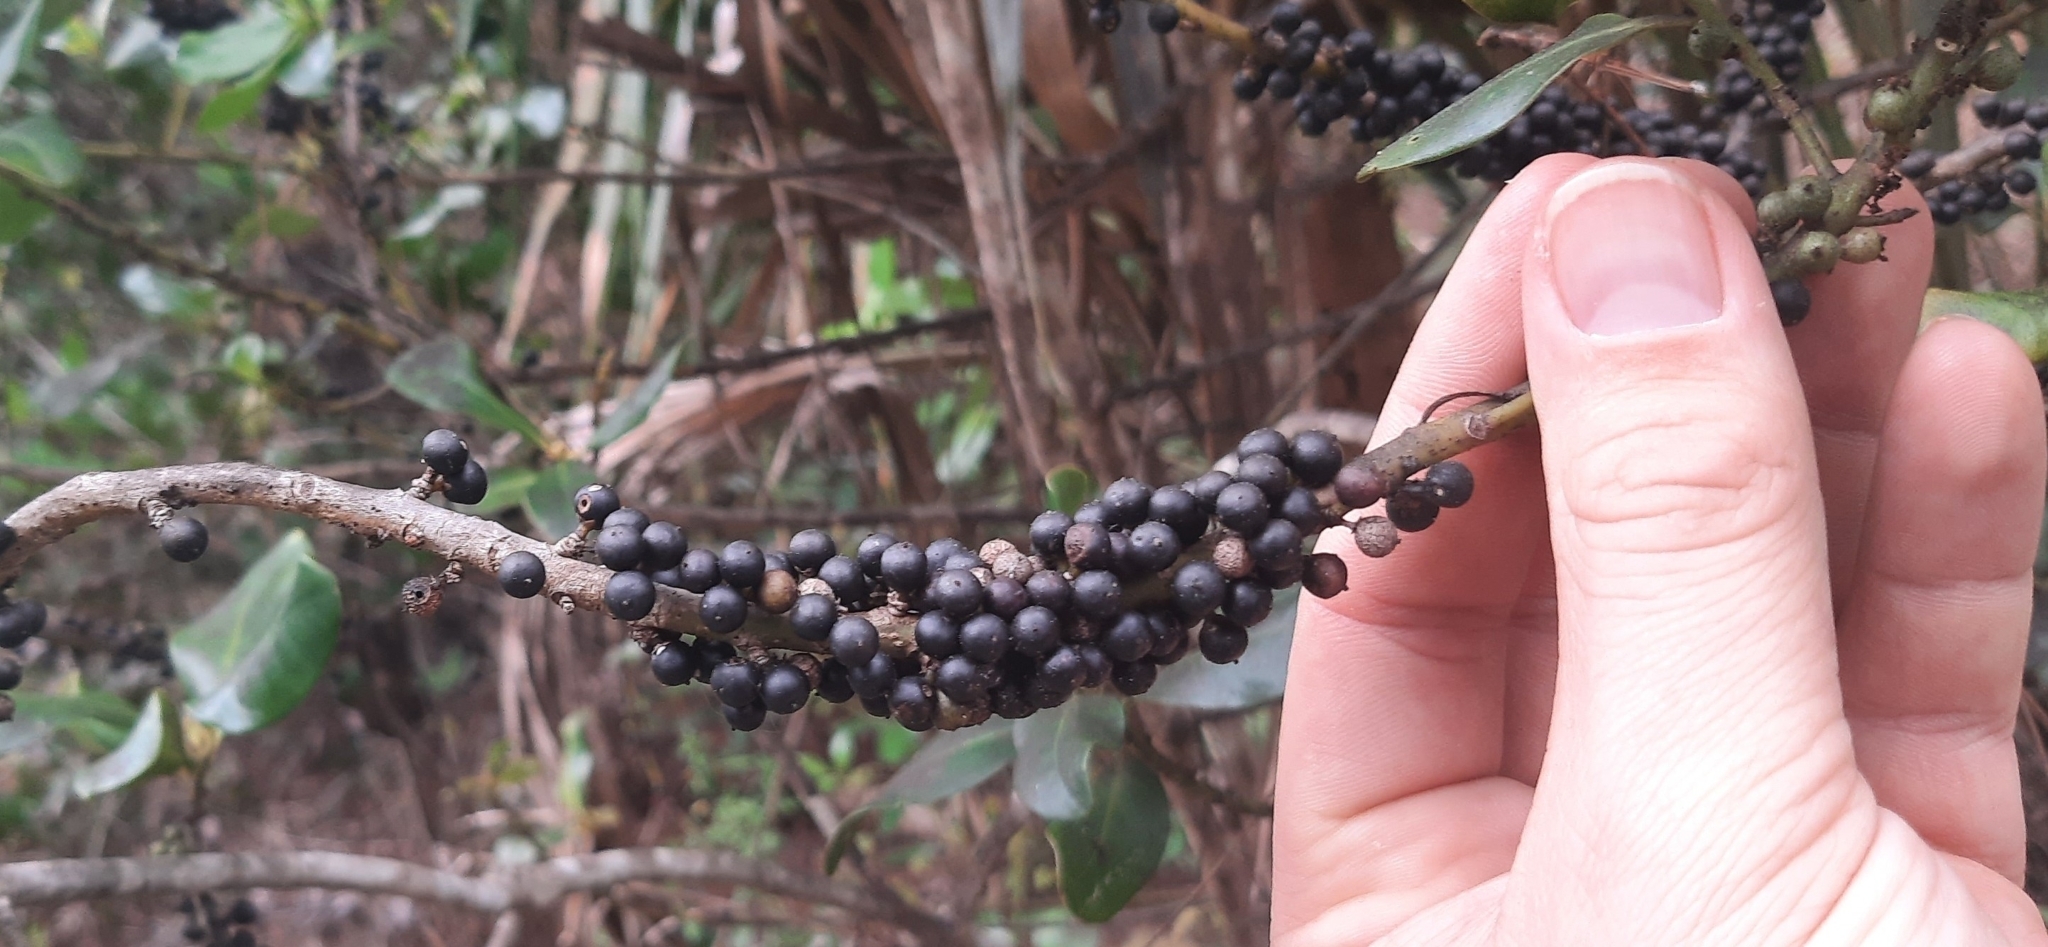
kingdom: Plantae
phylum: Tracheophyta
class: Magnoliopsida
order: Ericales
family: Primulaceae
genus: Myrsine
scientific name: Myrsine floridana
